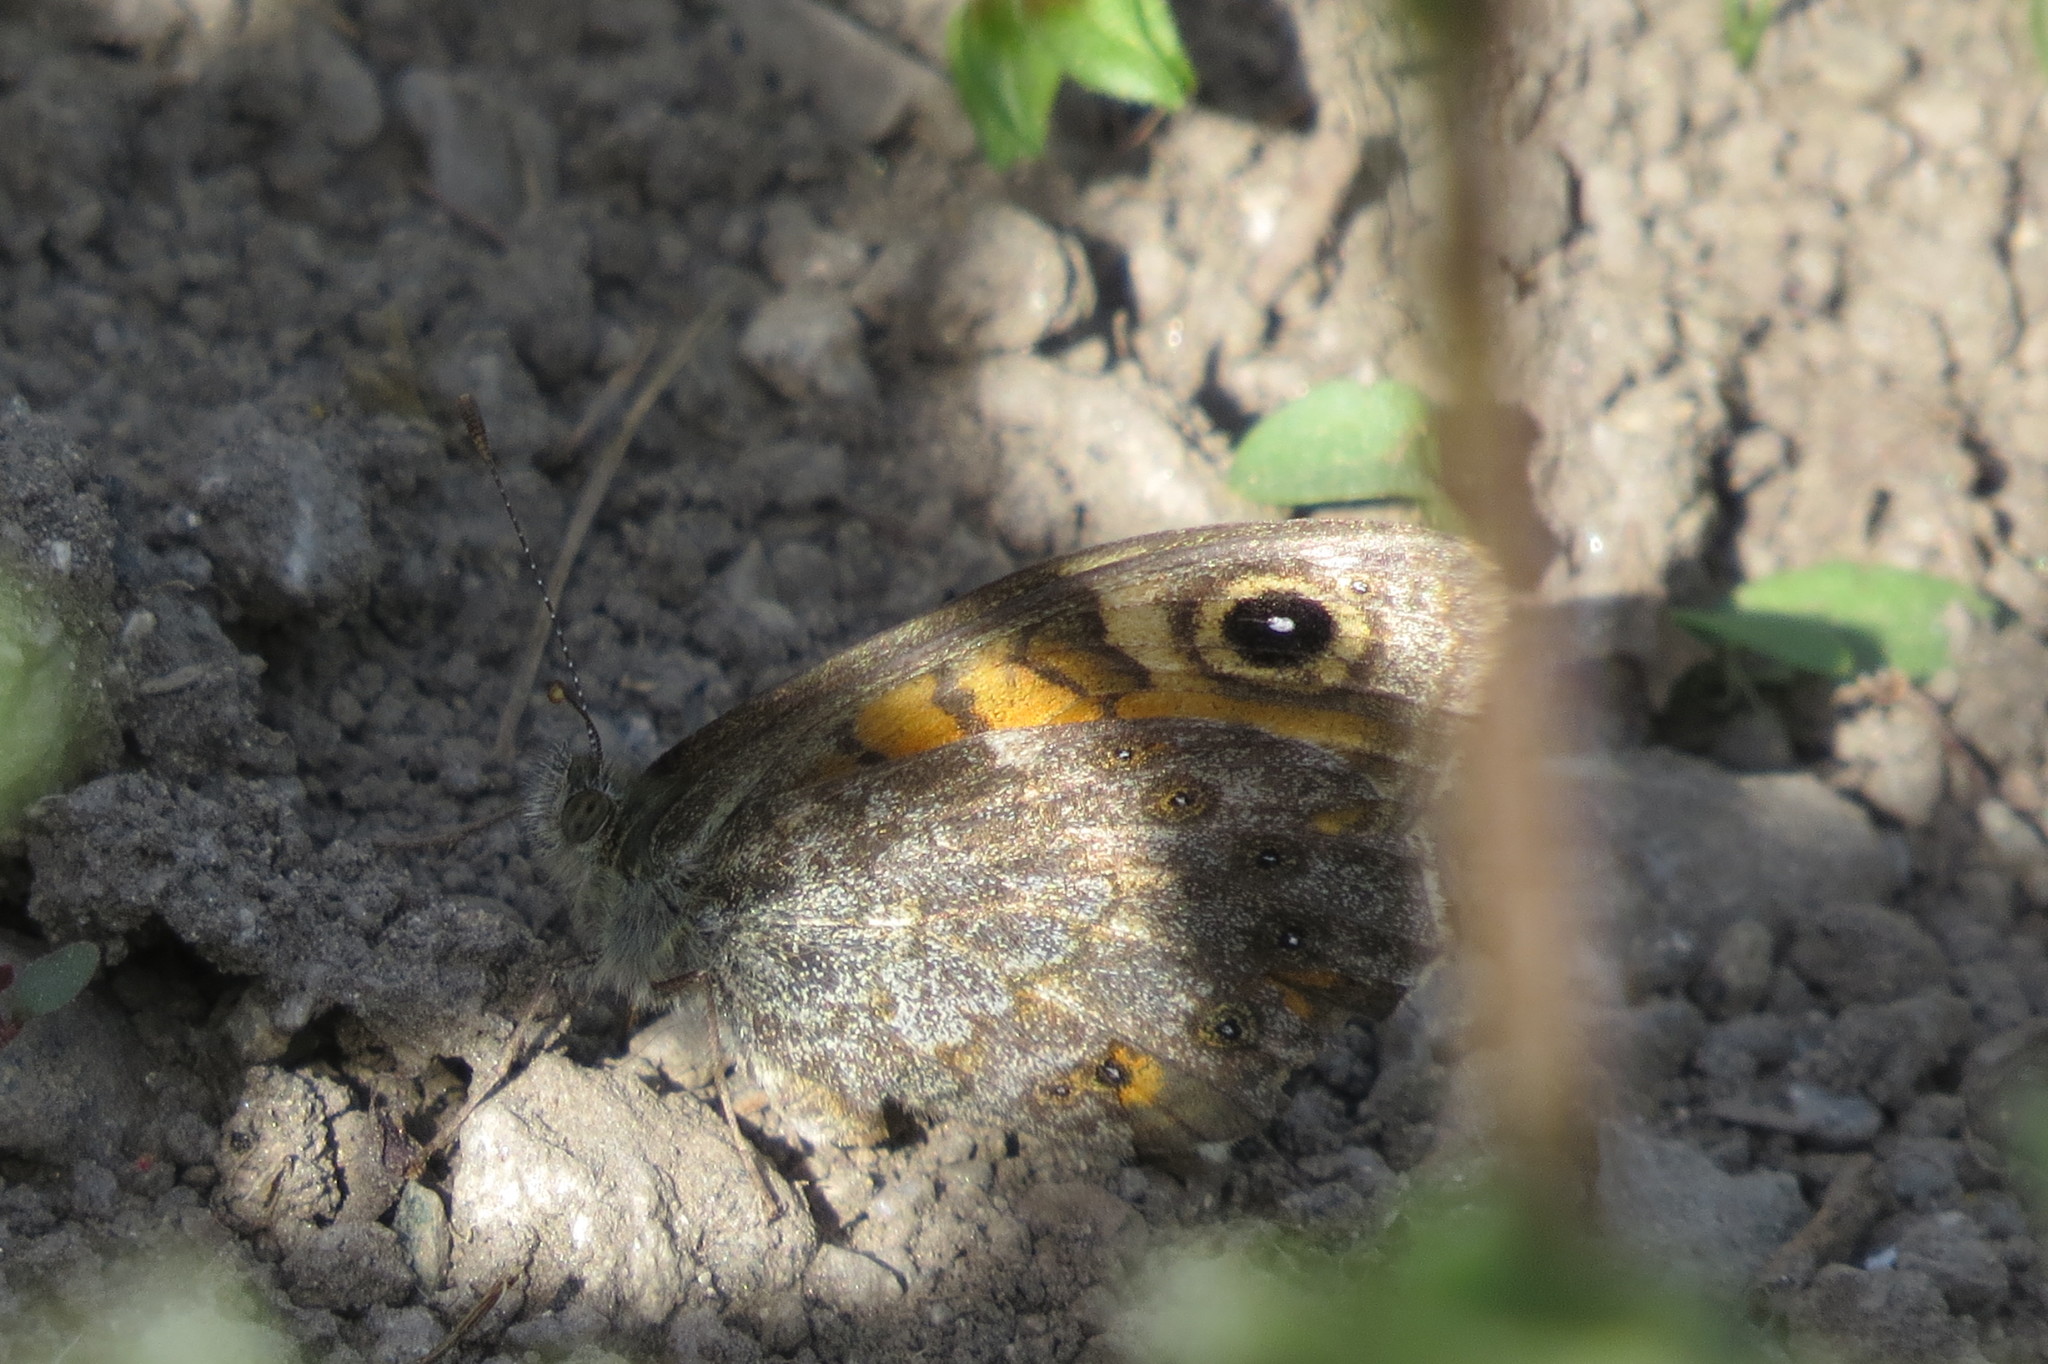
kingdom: Animalia
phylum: Arthropoda
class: Insecta
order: Lepidoptera
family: Nymphalidae
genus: Pararge
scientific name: Pararge Lasiommata megera
